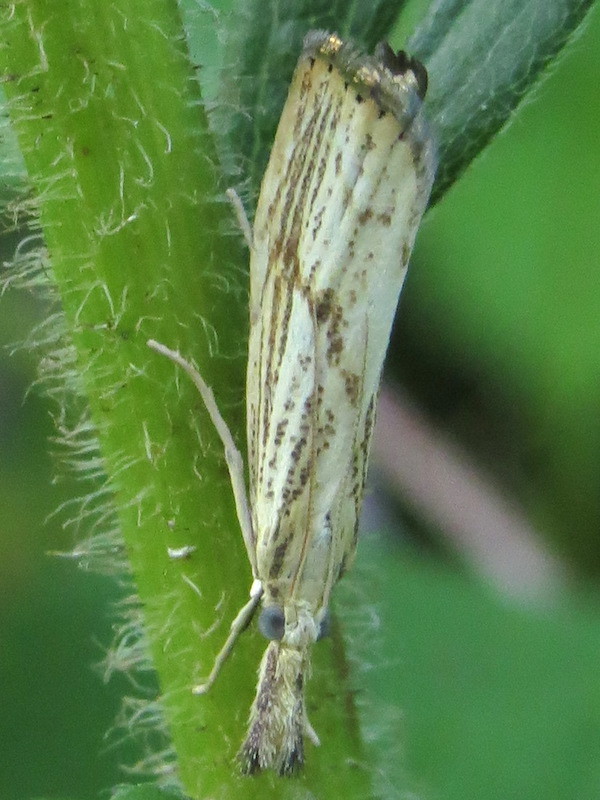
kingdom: Animalia
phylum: Arthropoda
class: Insecta
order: Lepidoptera
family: Crambidae
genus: Agriphila
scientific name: Agriphila ruricolellus
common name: Lesser vagabond sod webworm
